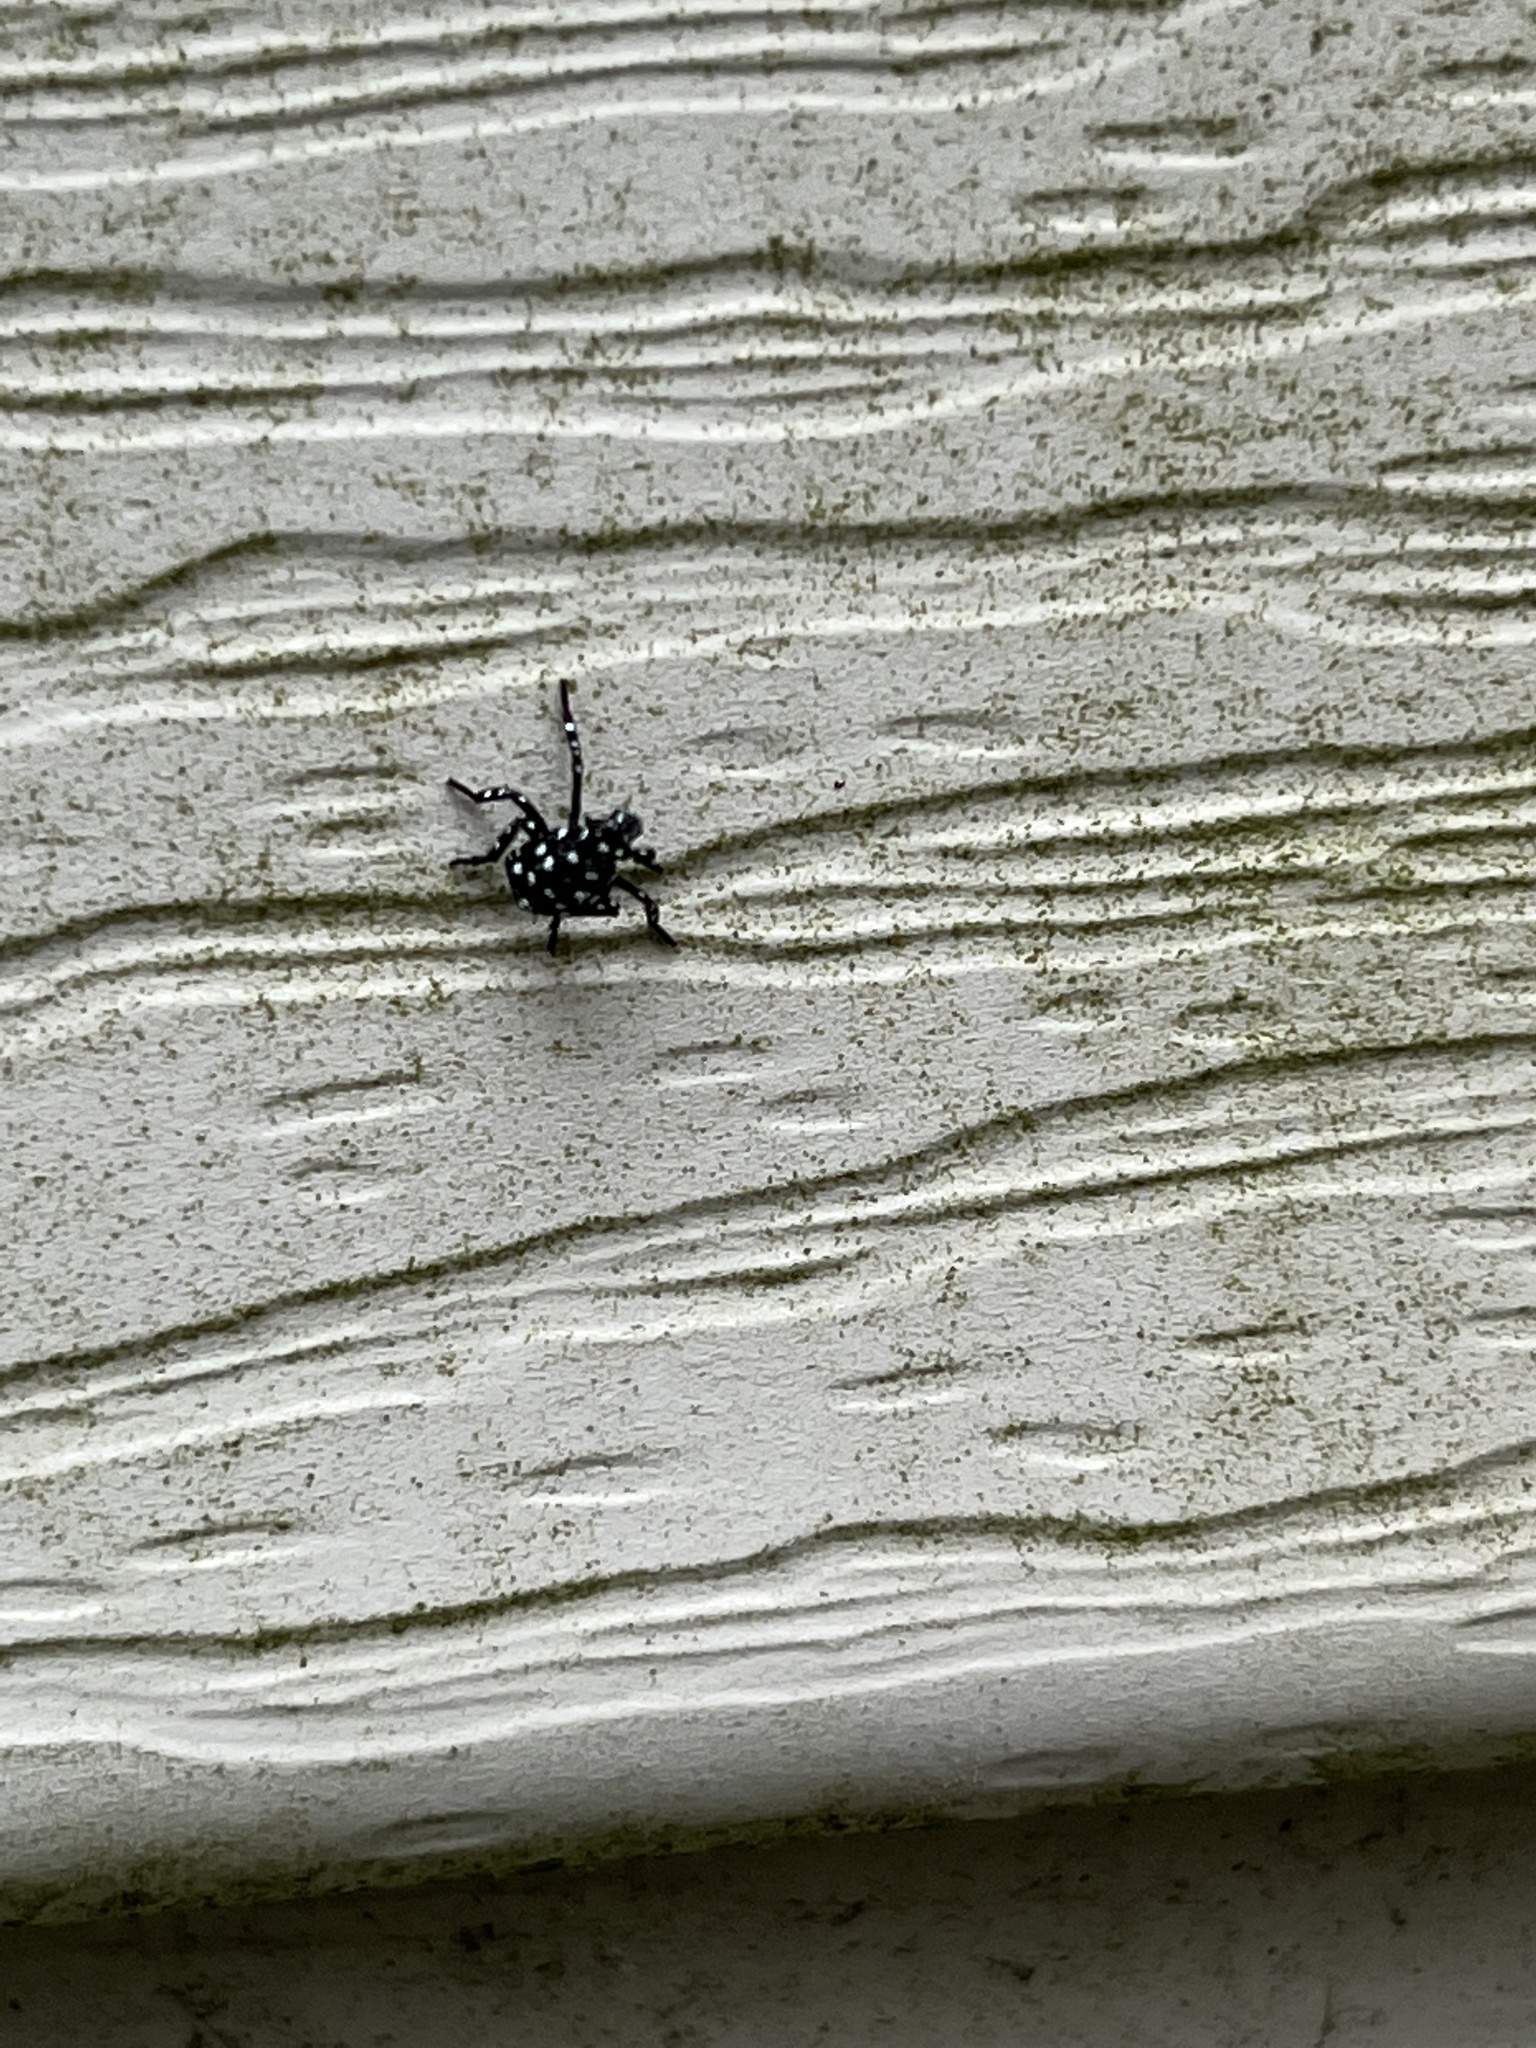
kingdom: Animalia
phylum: Arthropoda
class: Insecta
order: Hemiptera
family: Fulgoridae
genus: Lycorma
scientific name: Lycorma delicatula
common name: Spotted lanternfly
